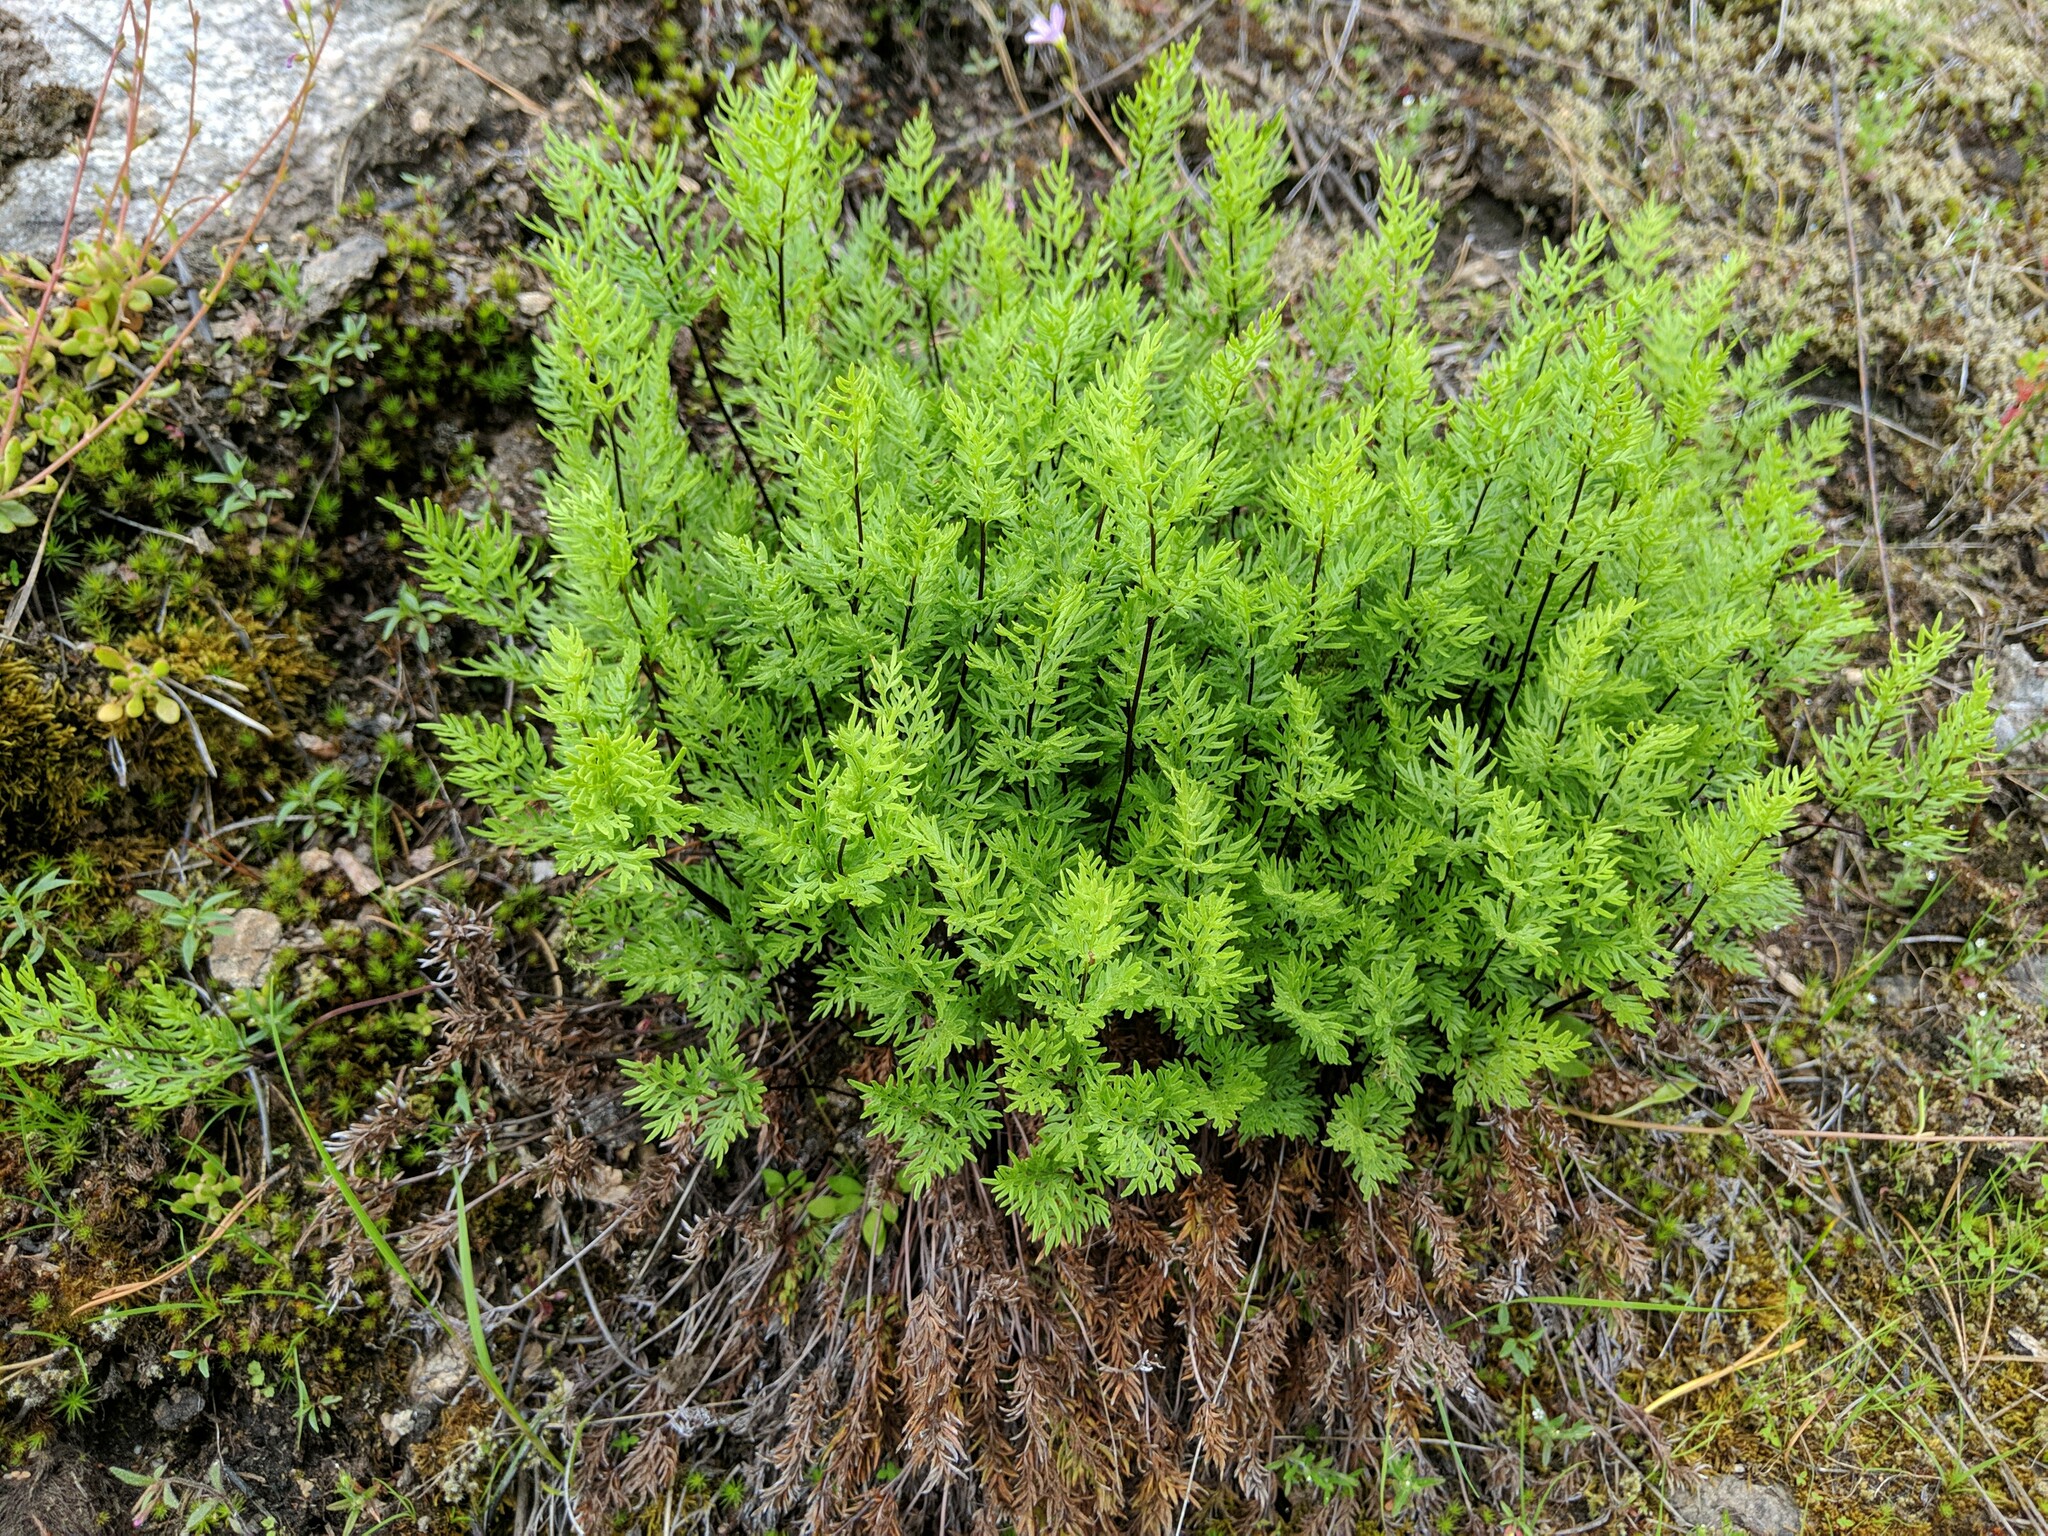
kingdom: Plantae
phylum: Tracheophyta
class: Polypodiopsida
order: Polypodiales
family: Pteridaceae
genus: Aspidotis
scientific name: Aspidotis densa
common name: Indian's dream
